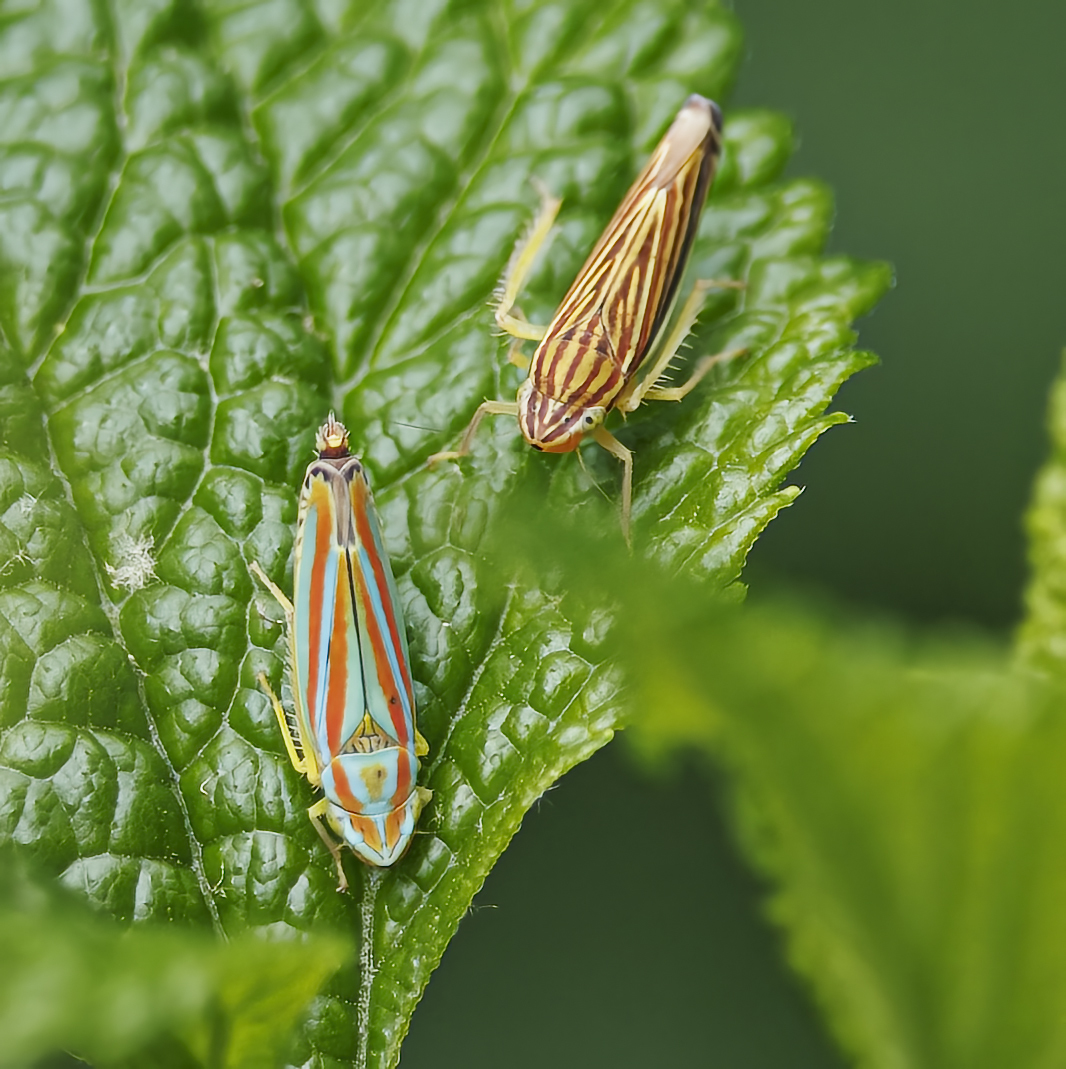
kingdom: Animalia
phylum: Arthropoda
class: Insecta
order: Hemiptera
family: Cicadellidae
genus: Graphocephala
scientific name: Graphocephala versuta
